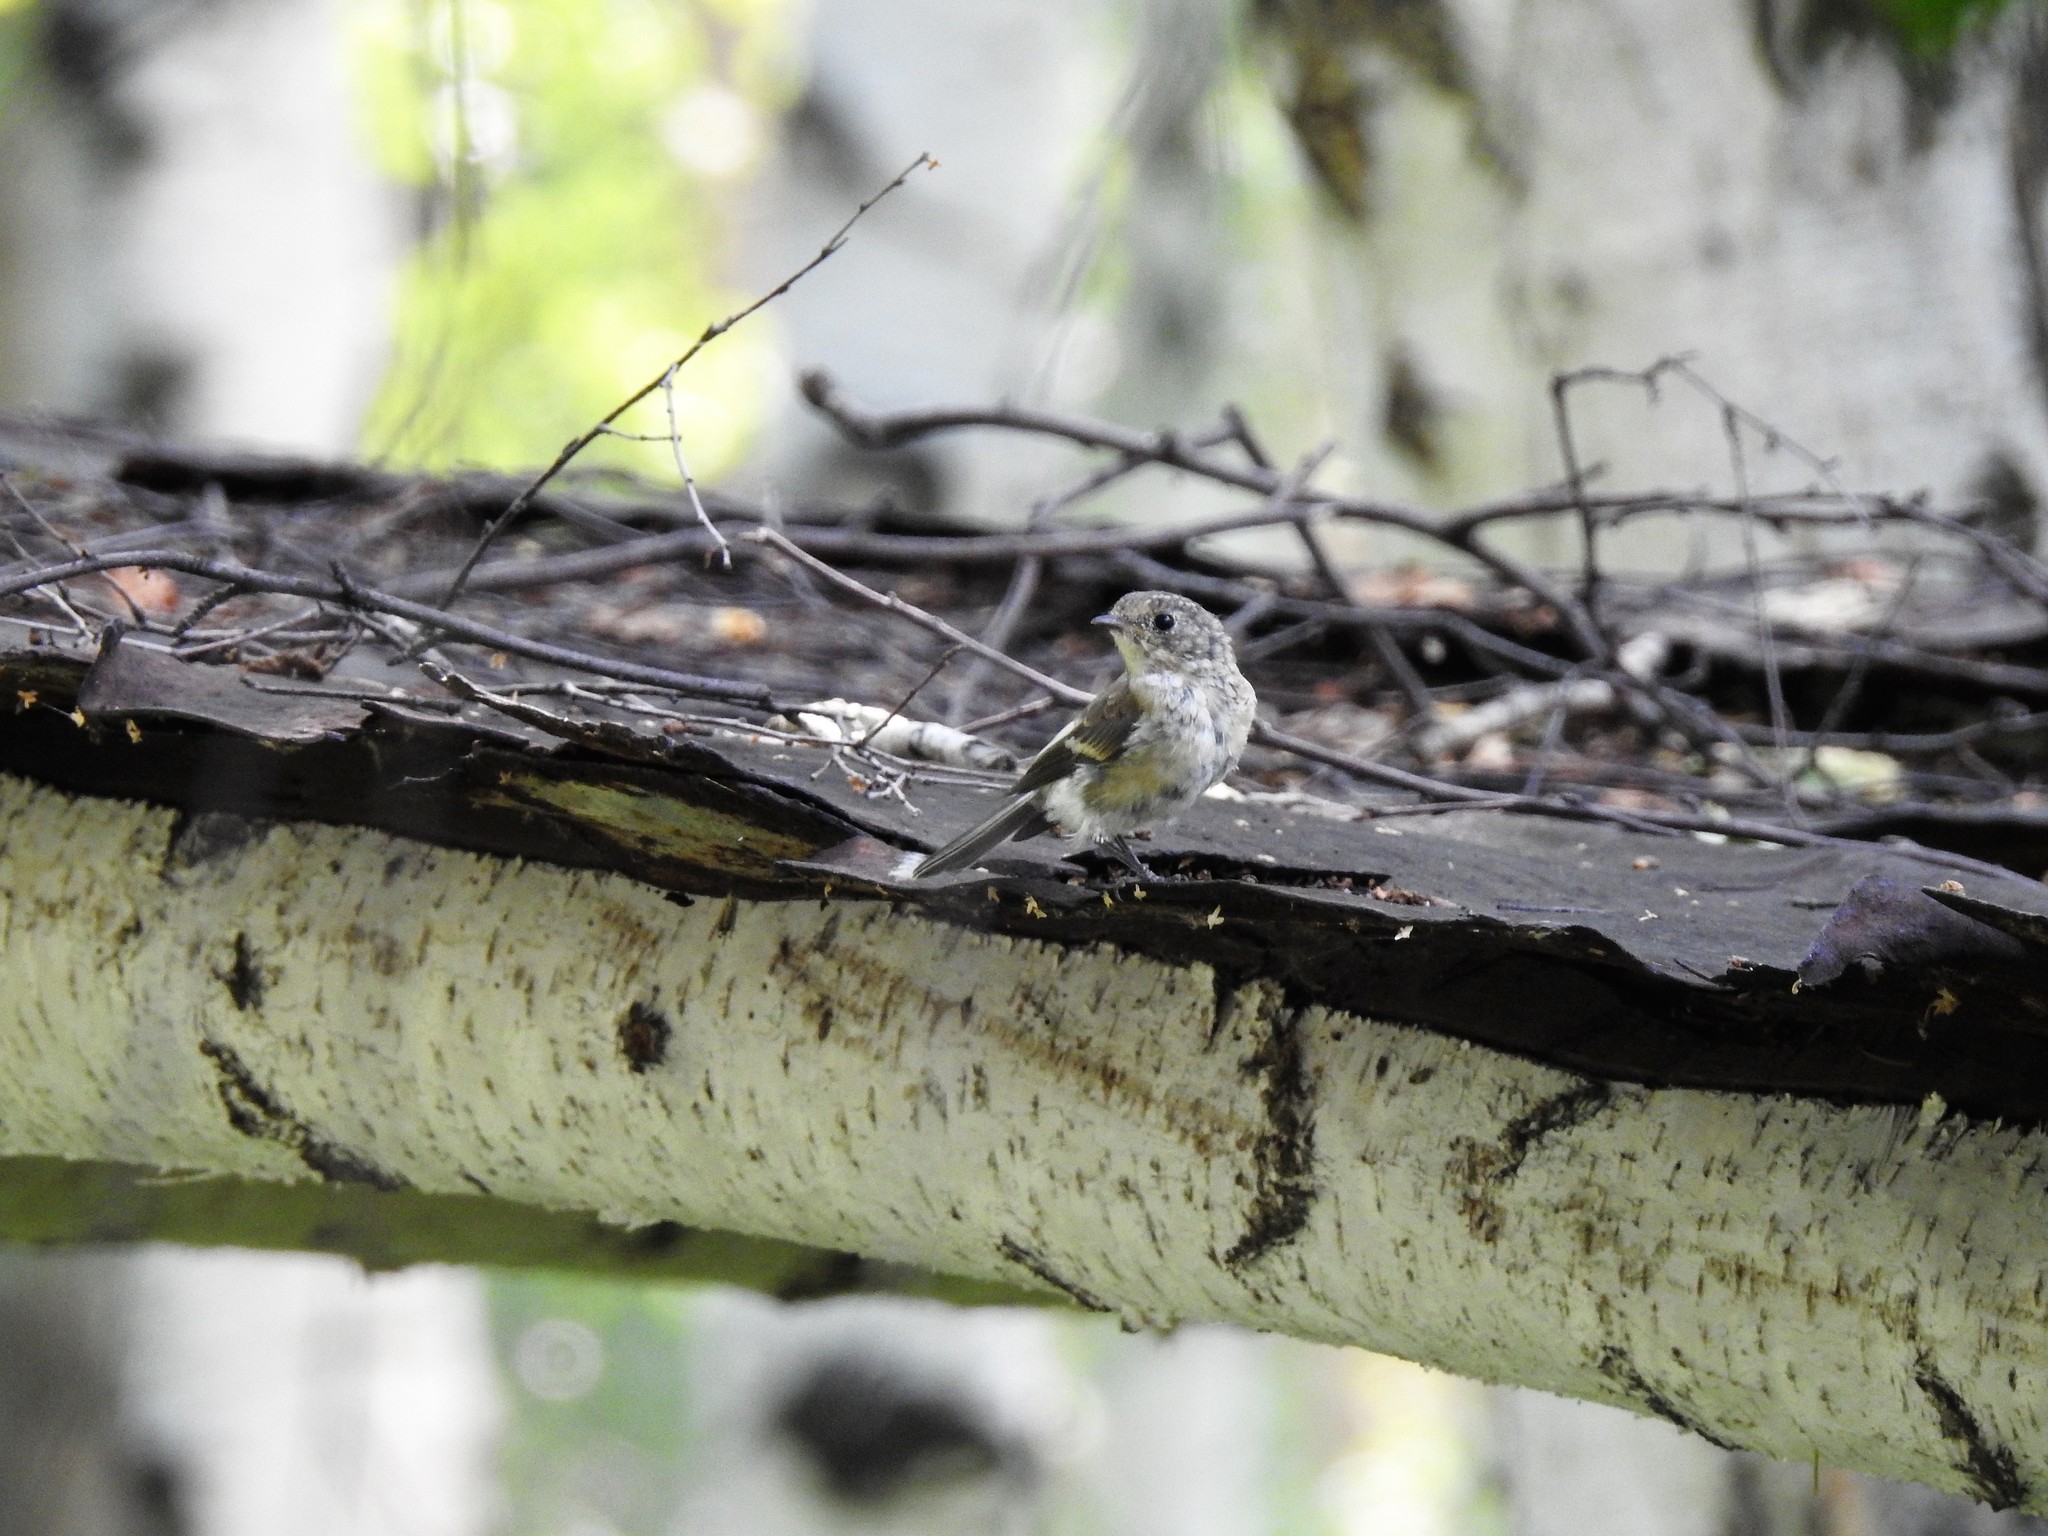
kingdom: Animalia
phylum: Chordata
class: Aves
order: Passeriformes
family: Muscicapidae
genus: Ficedula
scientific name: Ficedula hypoleuca
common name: European pied flycatcher
